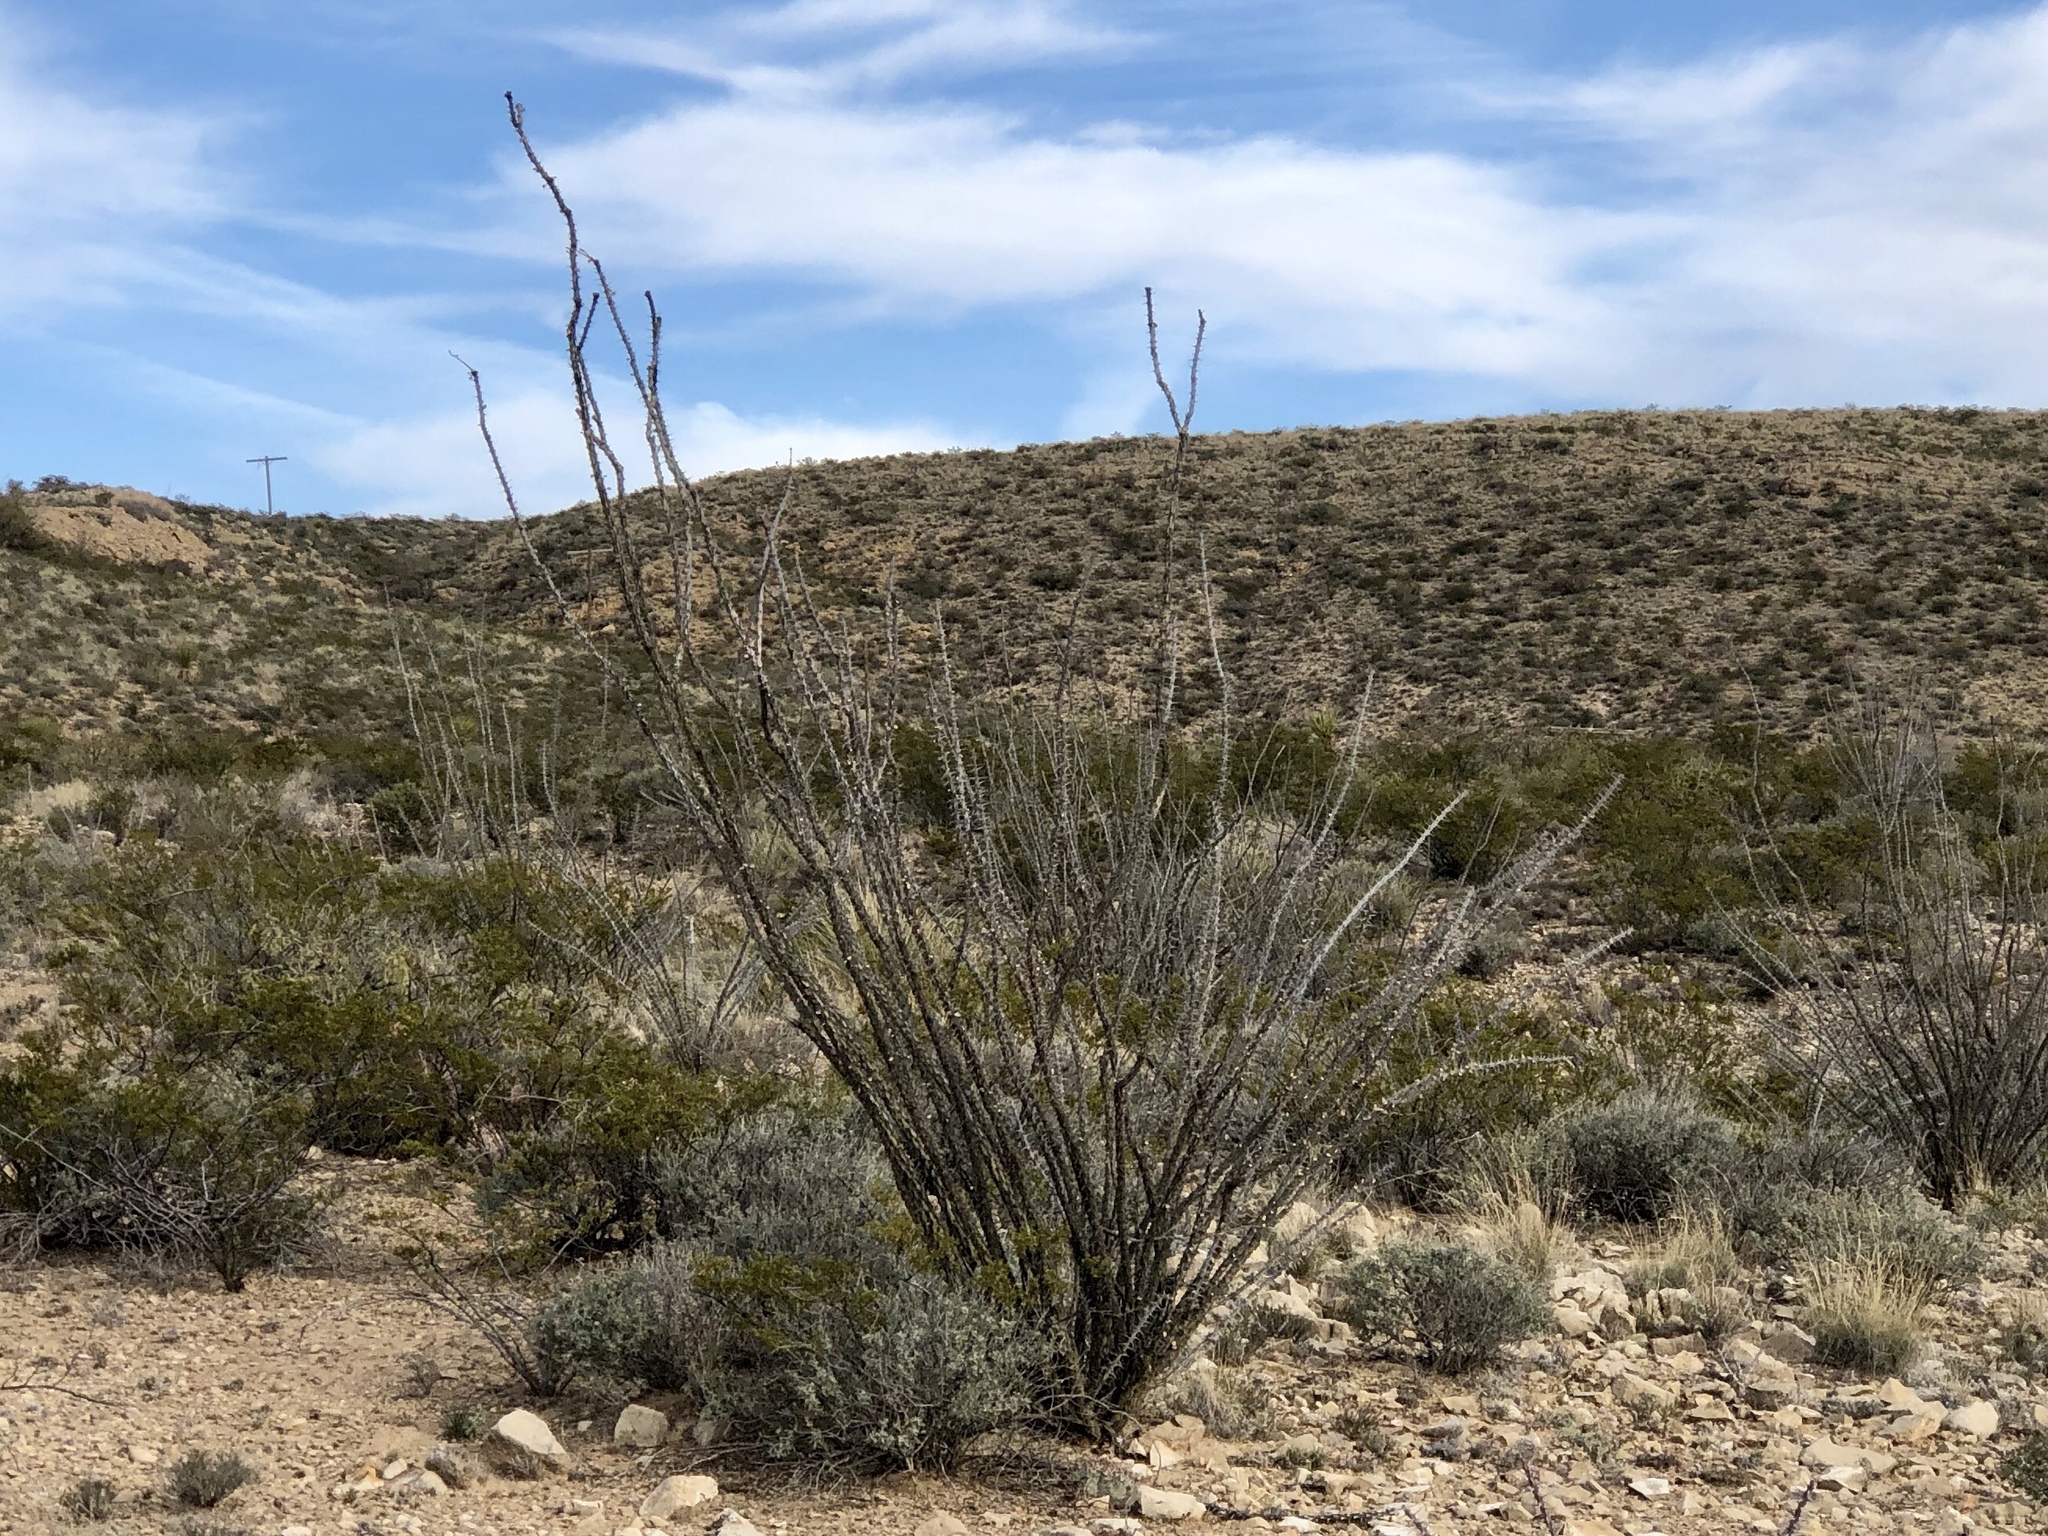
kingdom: Plantae
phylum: Tracheophyta
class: Magnoliopsida
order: Ericales
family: Fouquieriaceae
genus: Fouquieria
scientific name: Fouquieria splendens
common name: Vine-cactus
